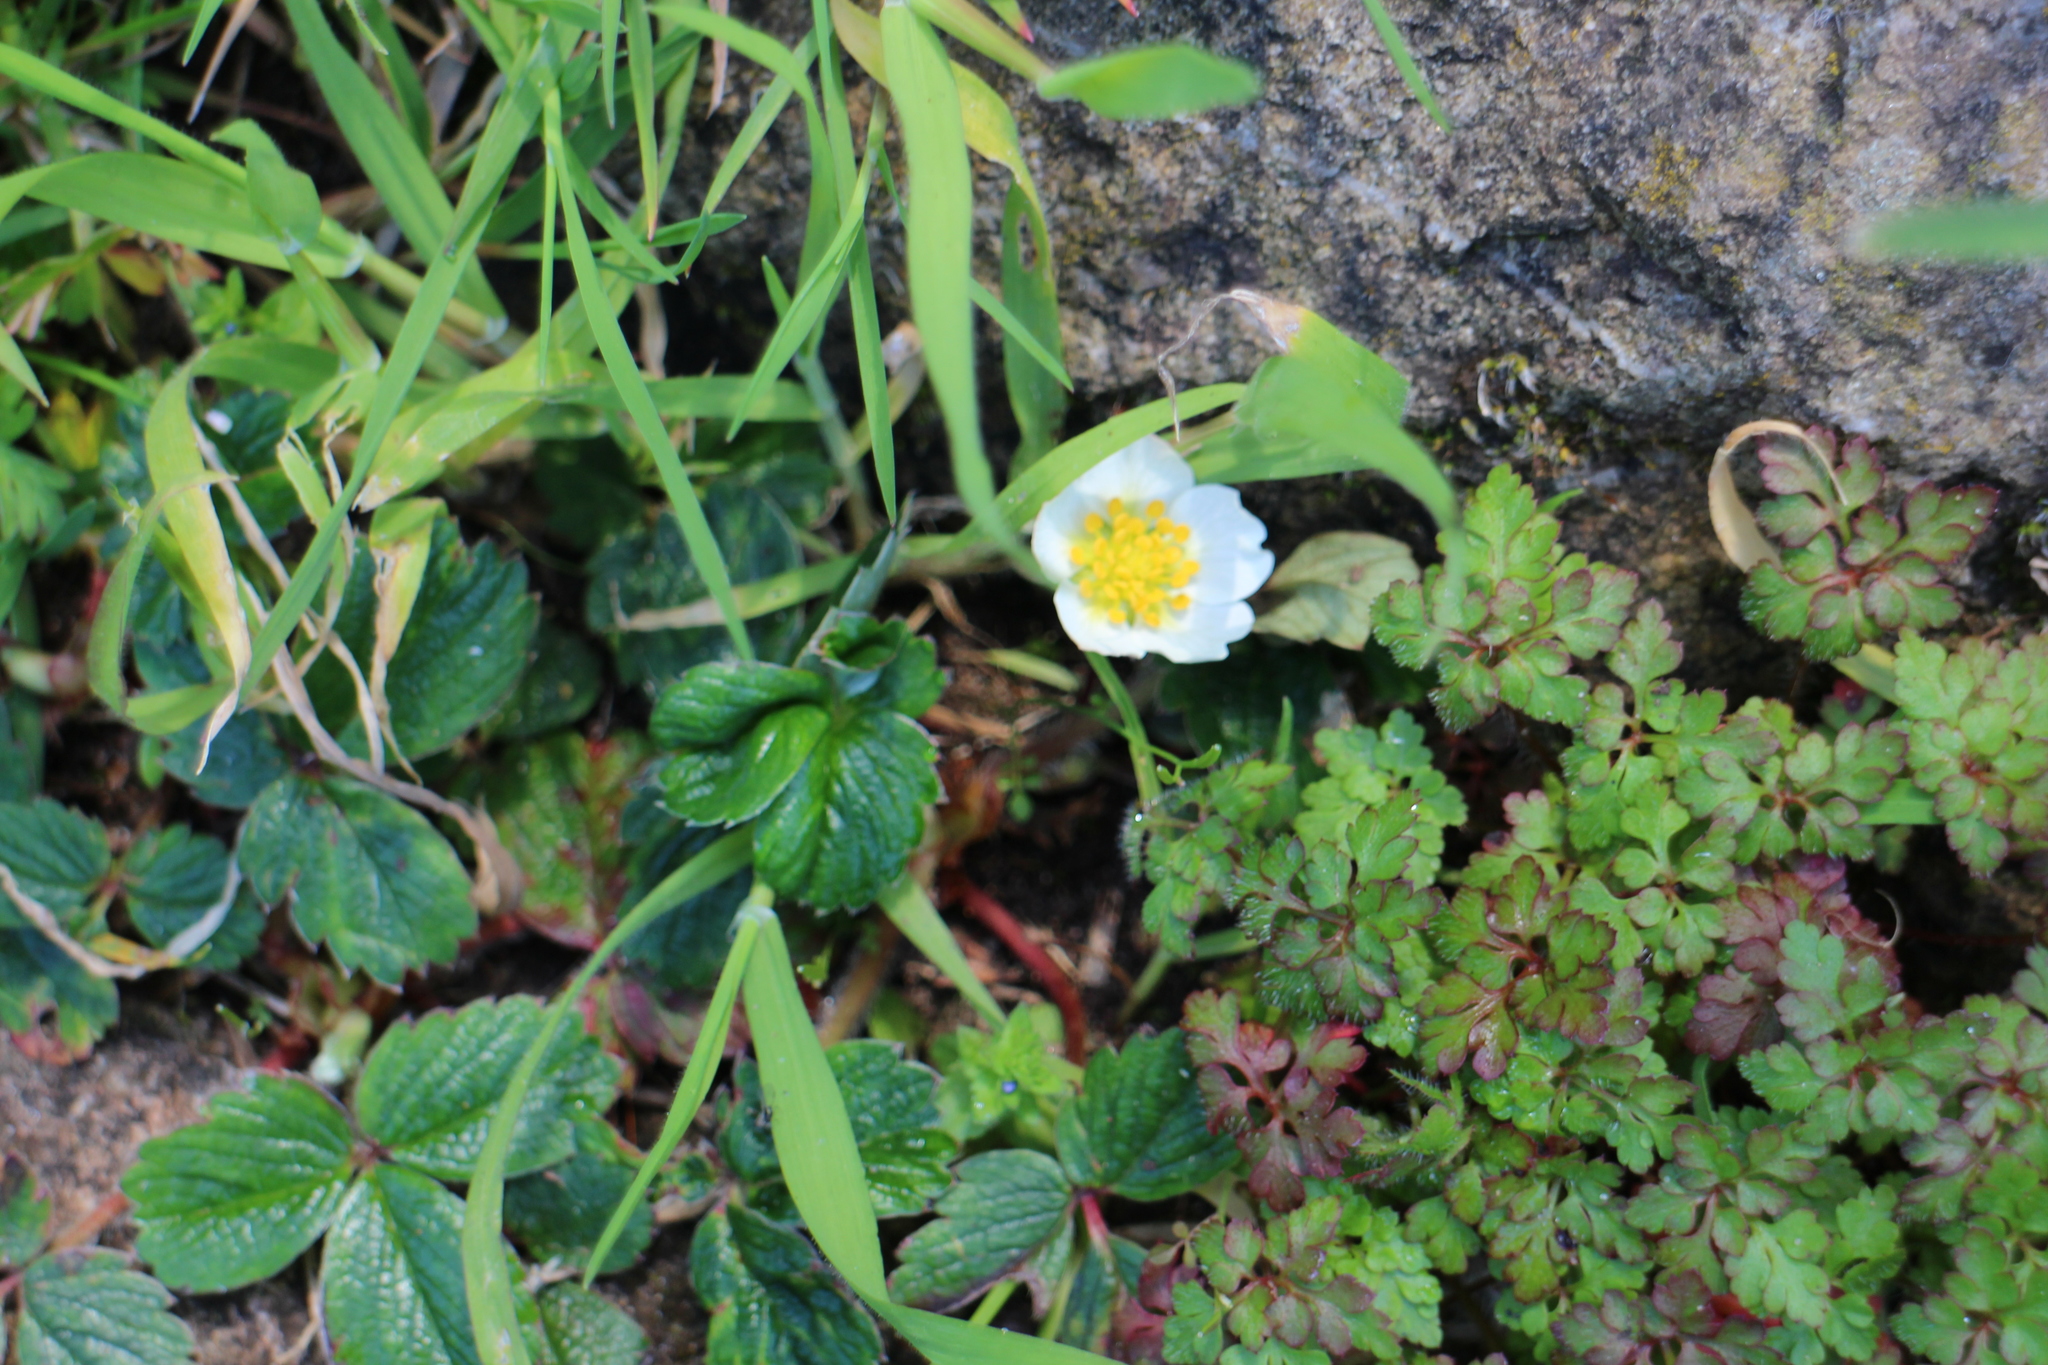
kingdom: Plantae
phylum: Tracheophyta
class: Magnoliopsida
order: Rosales
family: Rosaceae
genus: Fragaria
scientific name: Fragaria chiloensis
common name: Beach strawberry
